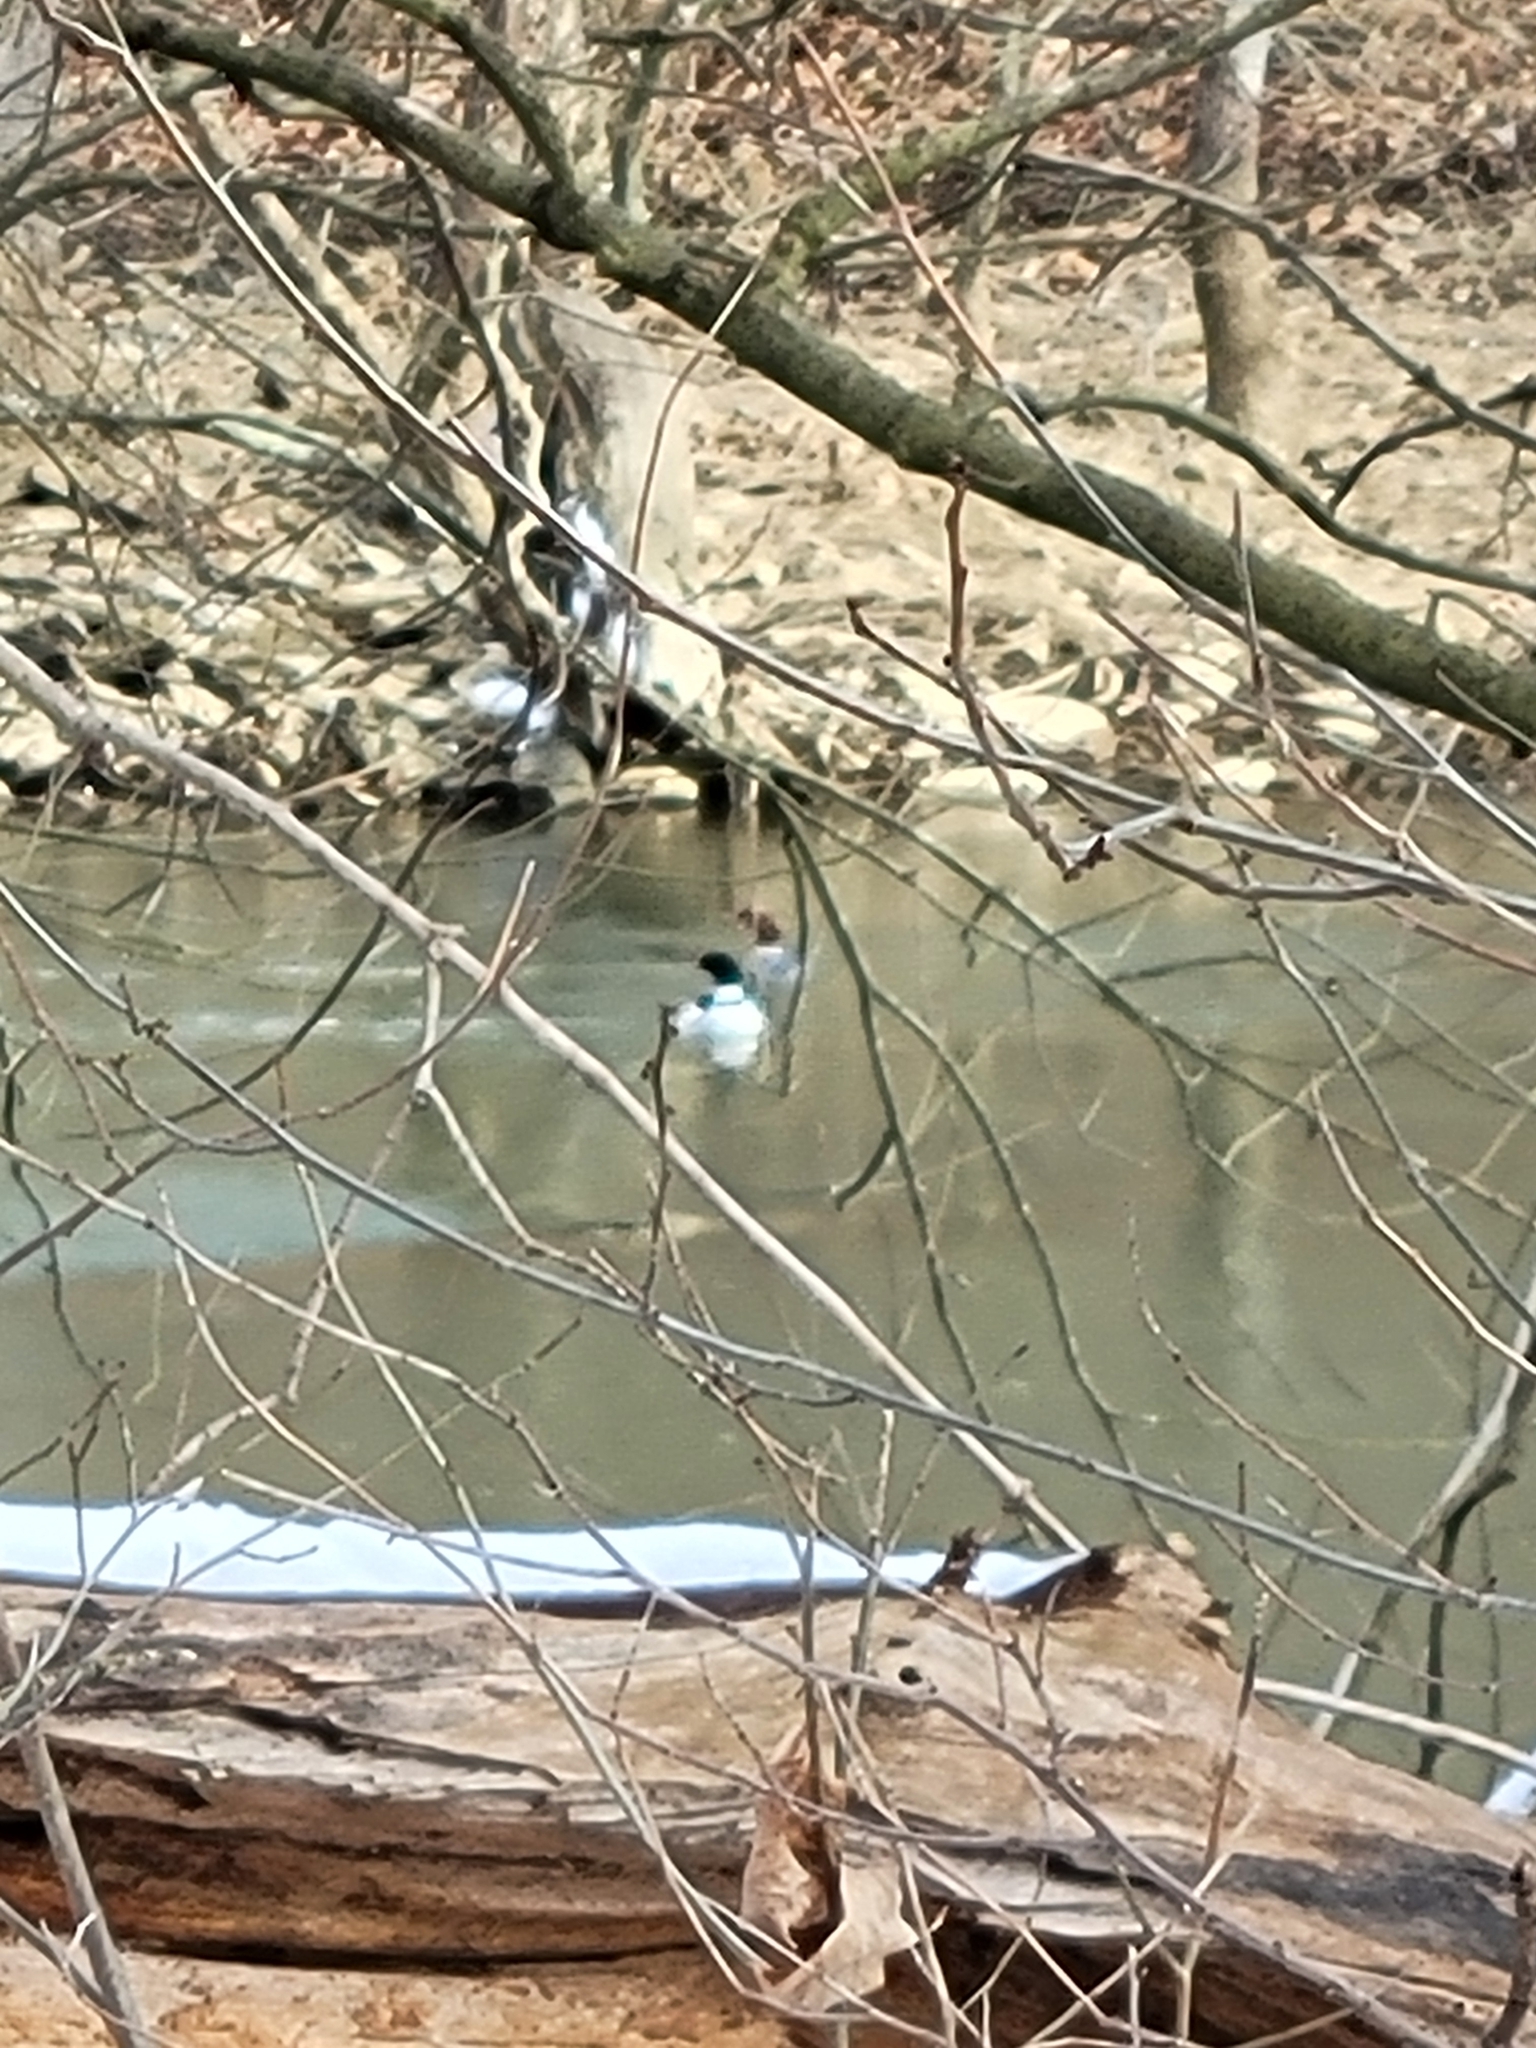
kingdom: Animalia
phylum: Chordata
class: Aves
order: Anseriformes
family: Anatidae
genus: Mergus
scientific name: Mergus merganser
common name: Common merganser
